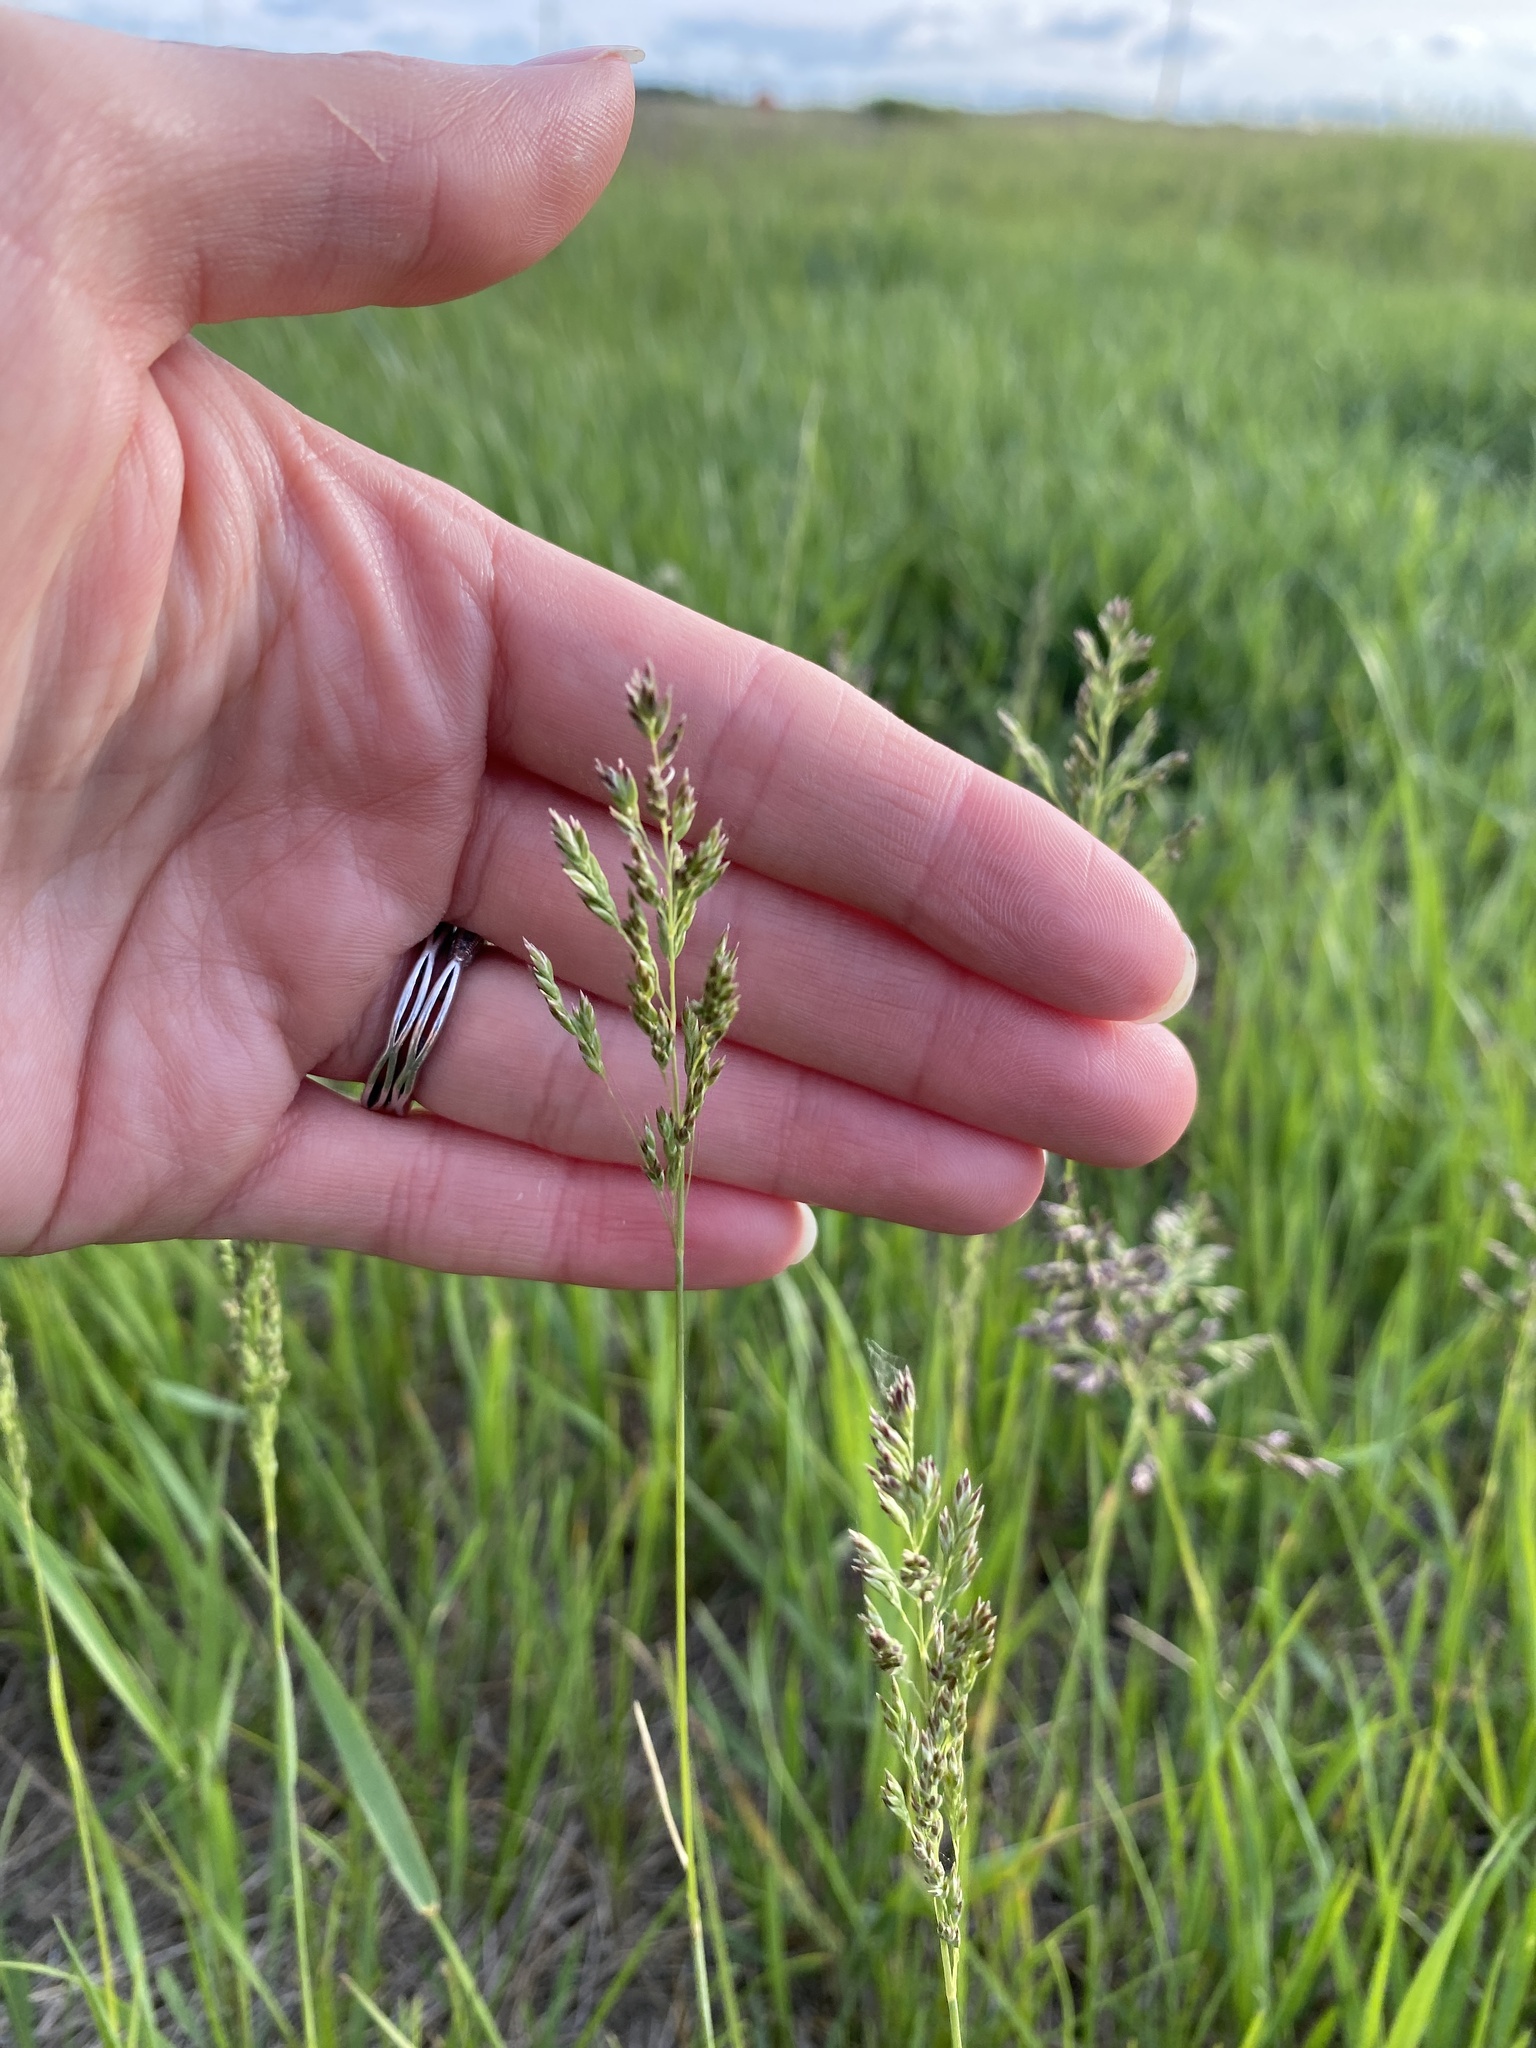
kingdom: Plantae
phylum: Tracheophyta
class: Liliopsida
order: Poales
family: Poaceae
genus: Poa
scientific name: Poa pratensis
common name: Kentucky bluegrass
